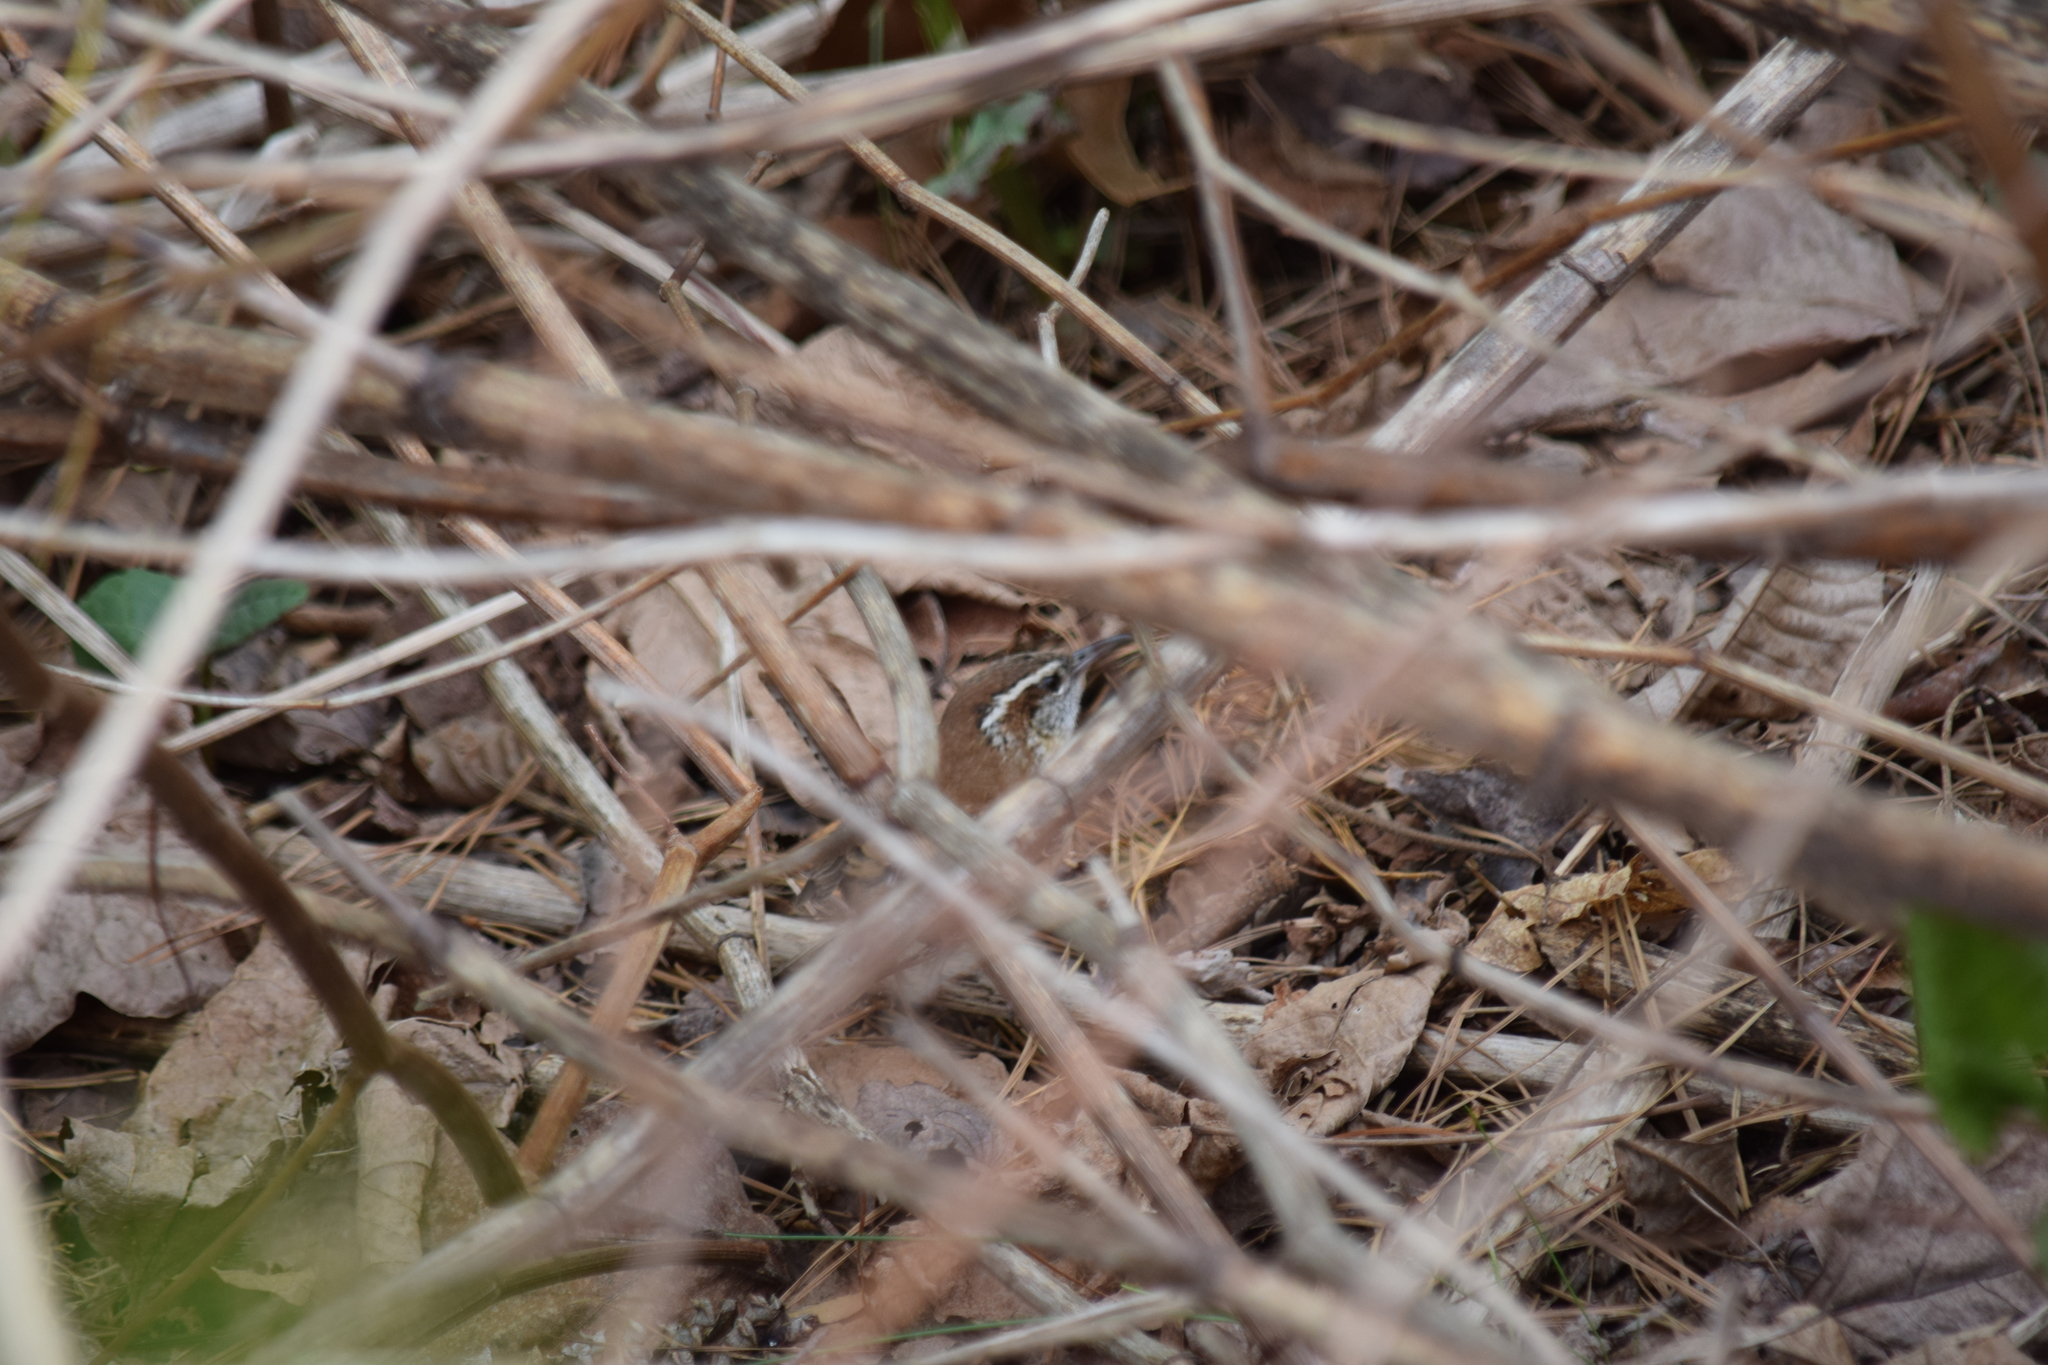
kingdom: Animalia
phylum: Chordata
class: Aves
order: Passeriformes
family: Troglodytidae
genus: Thryothorus
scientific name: Thryothorus ludovicianus
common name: Carolina wren
